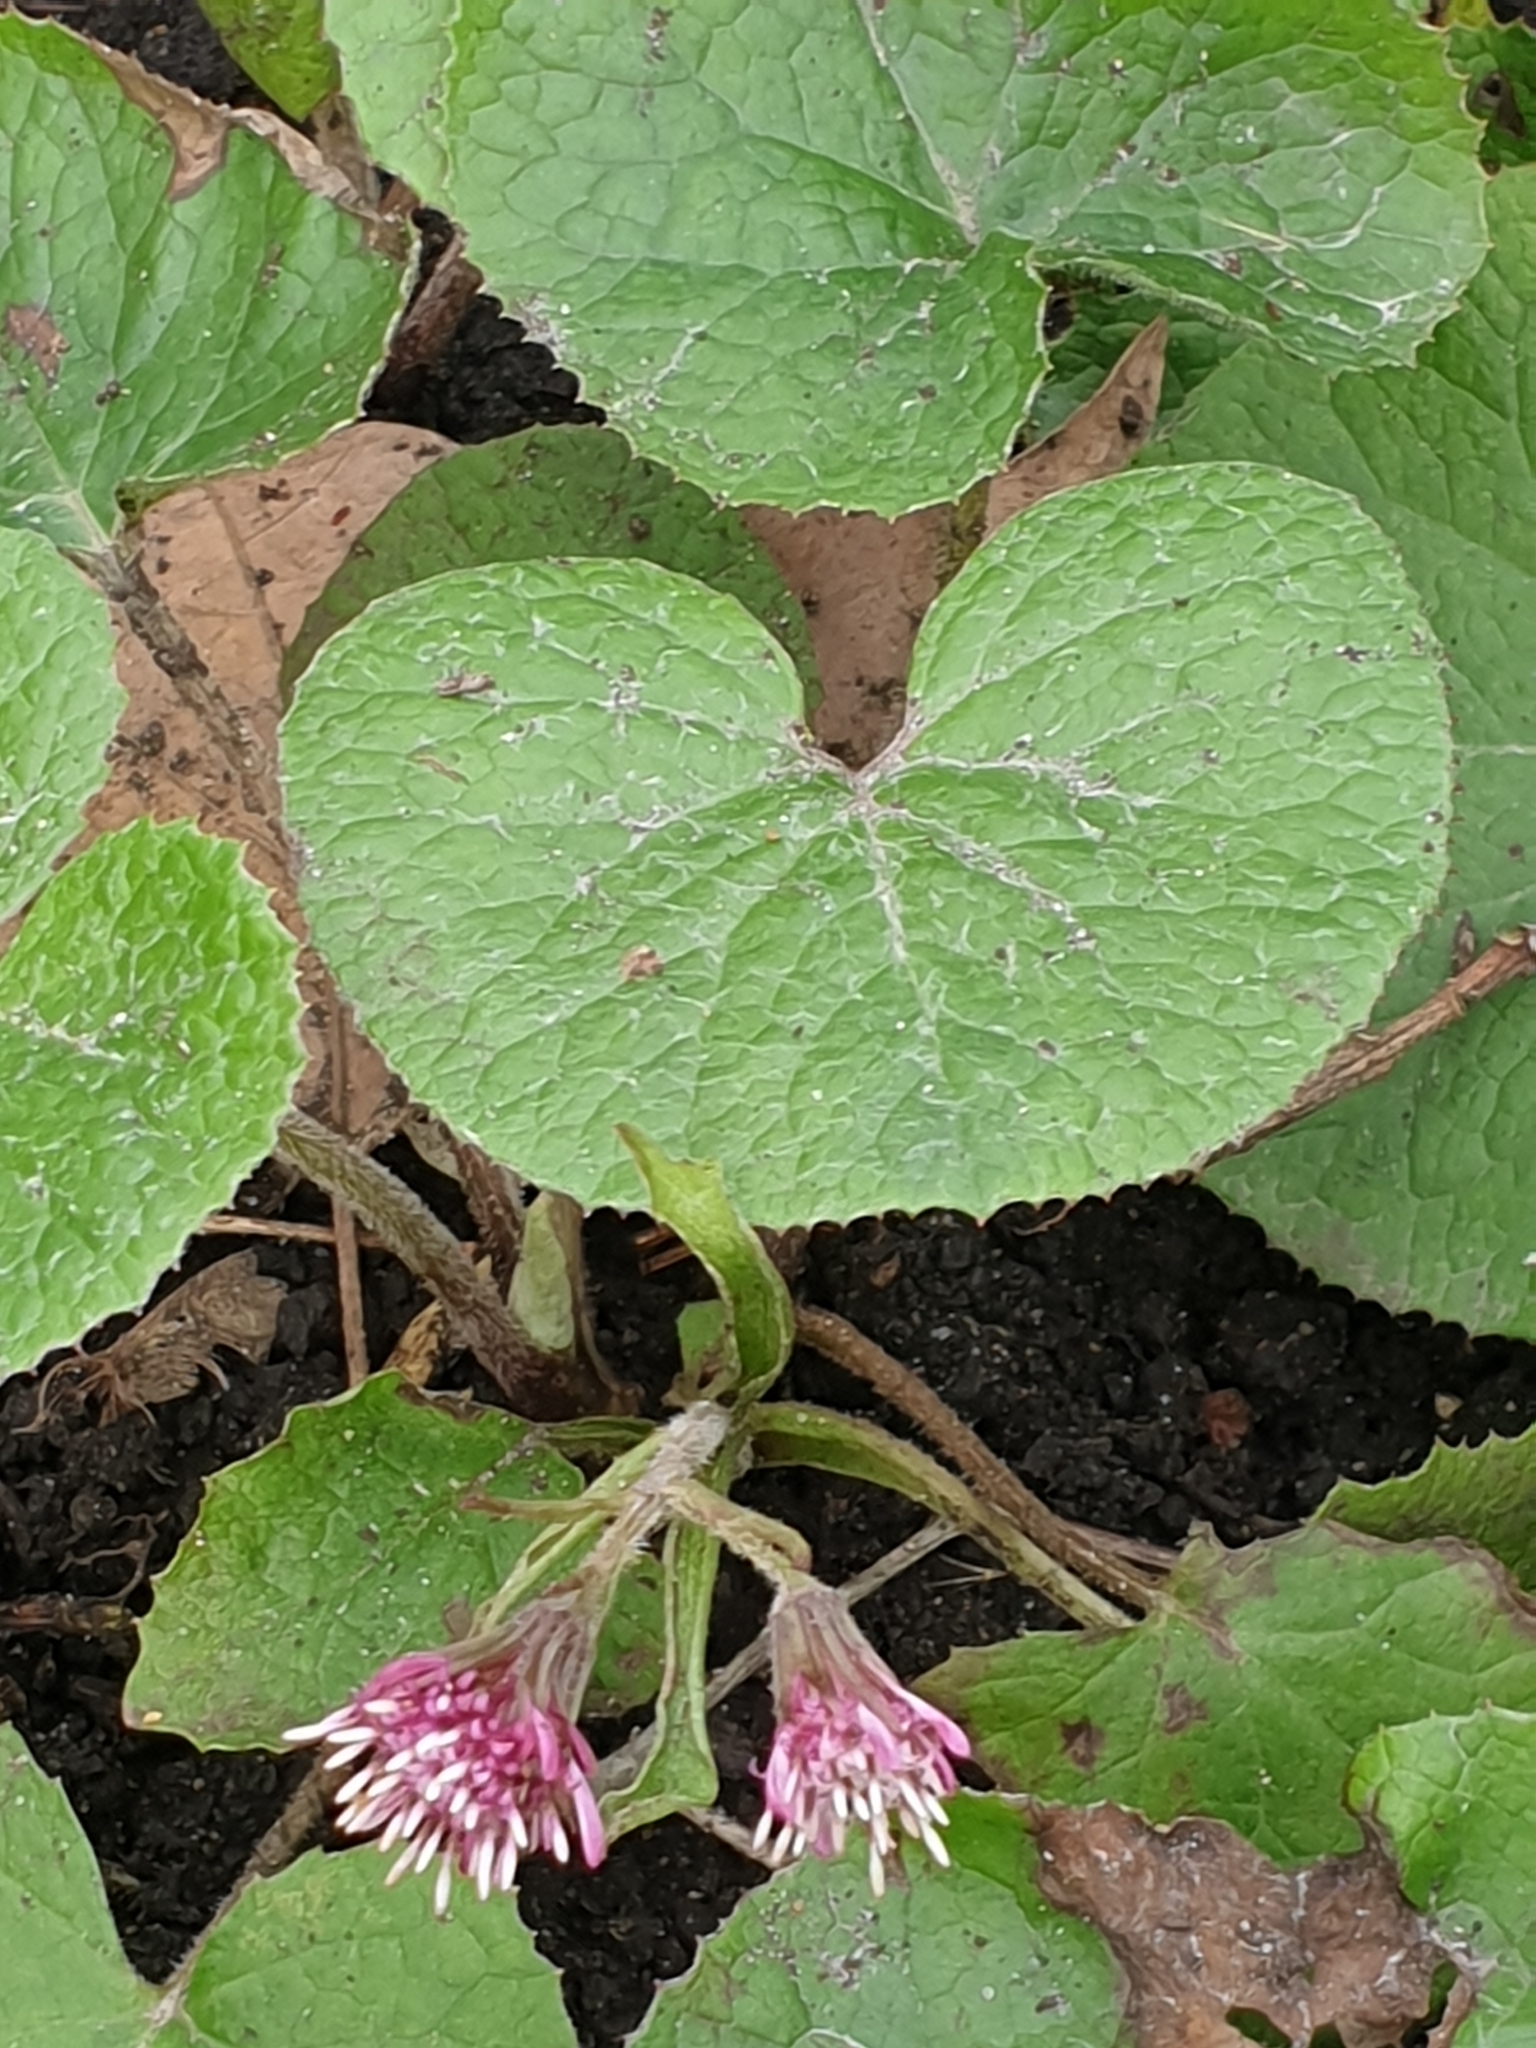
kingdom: Plantae
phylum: Tracheophyta
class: Magnoliopsida
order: Asterales
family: Asteraceae
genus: Petasites
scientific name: Petasites pyrenaicus
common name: Winter heliotrope
